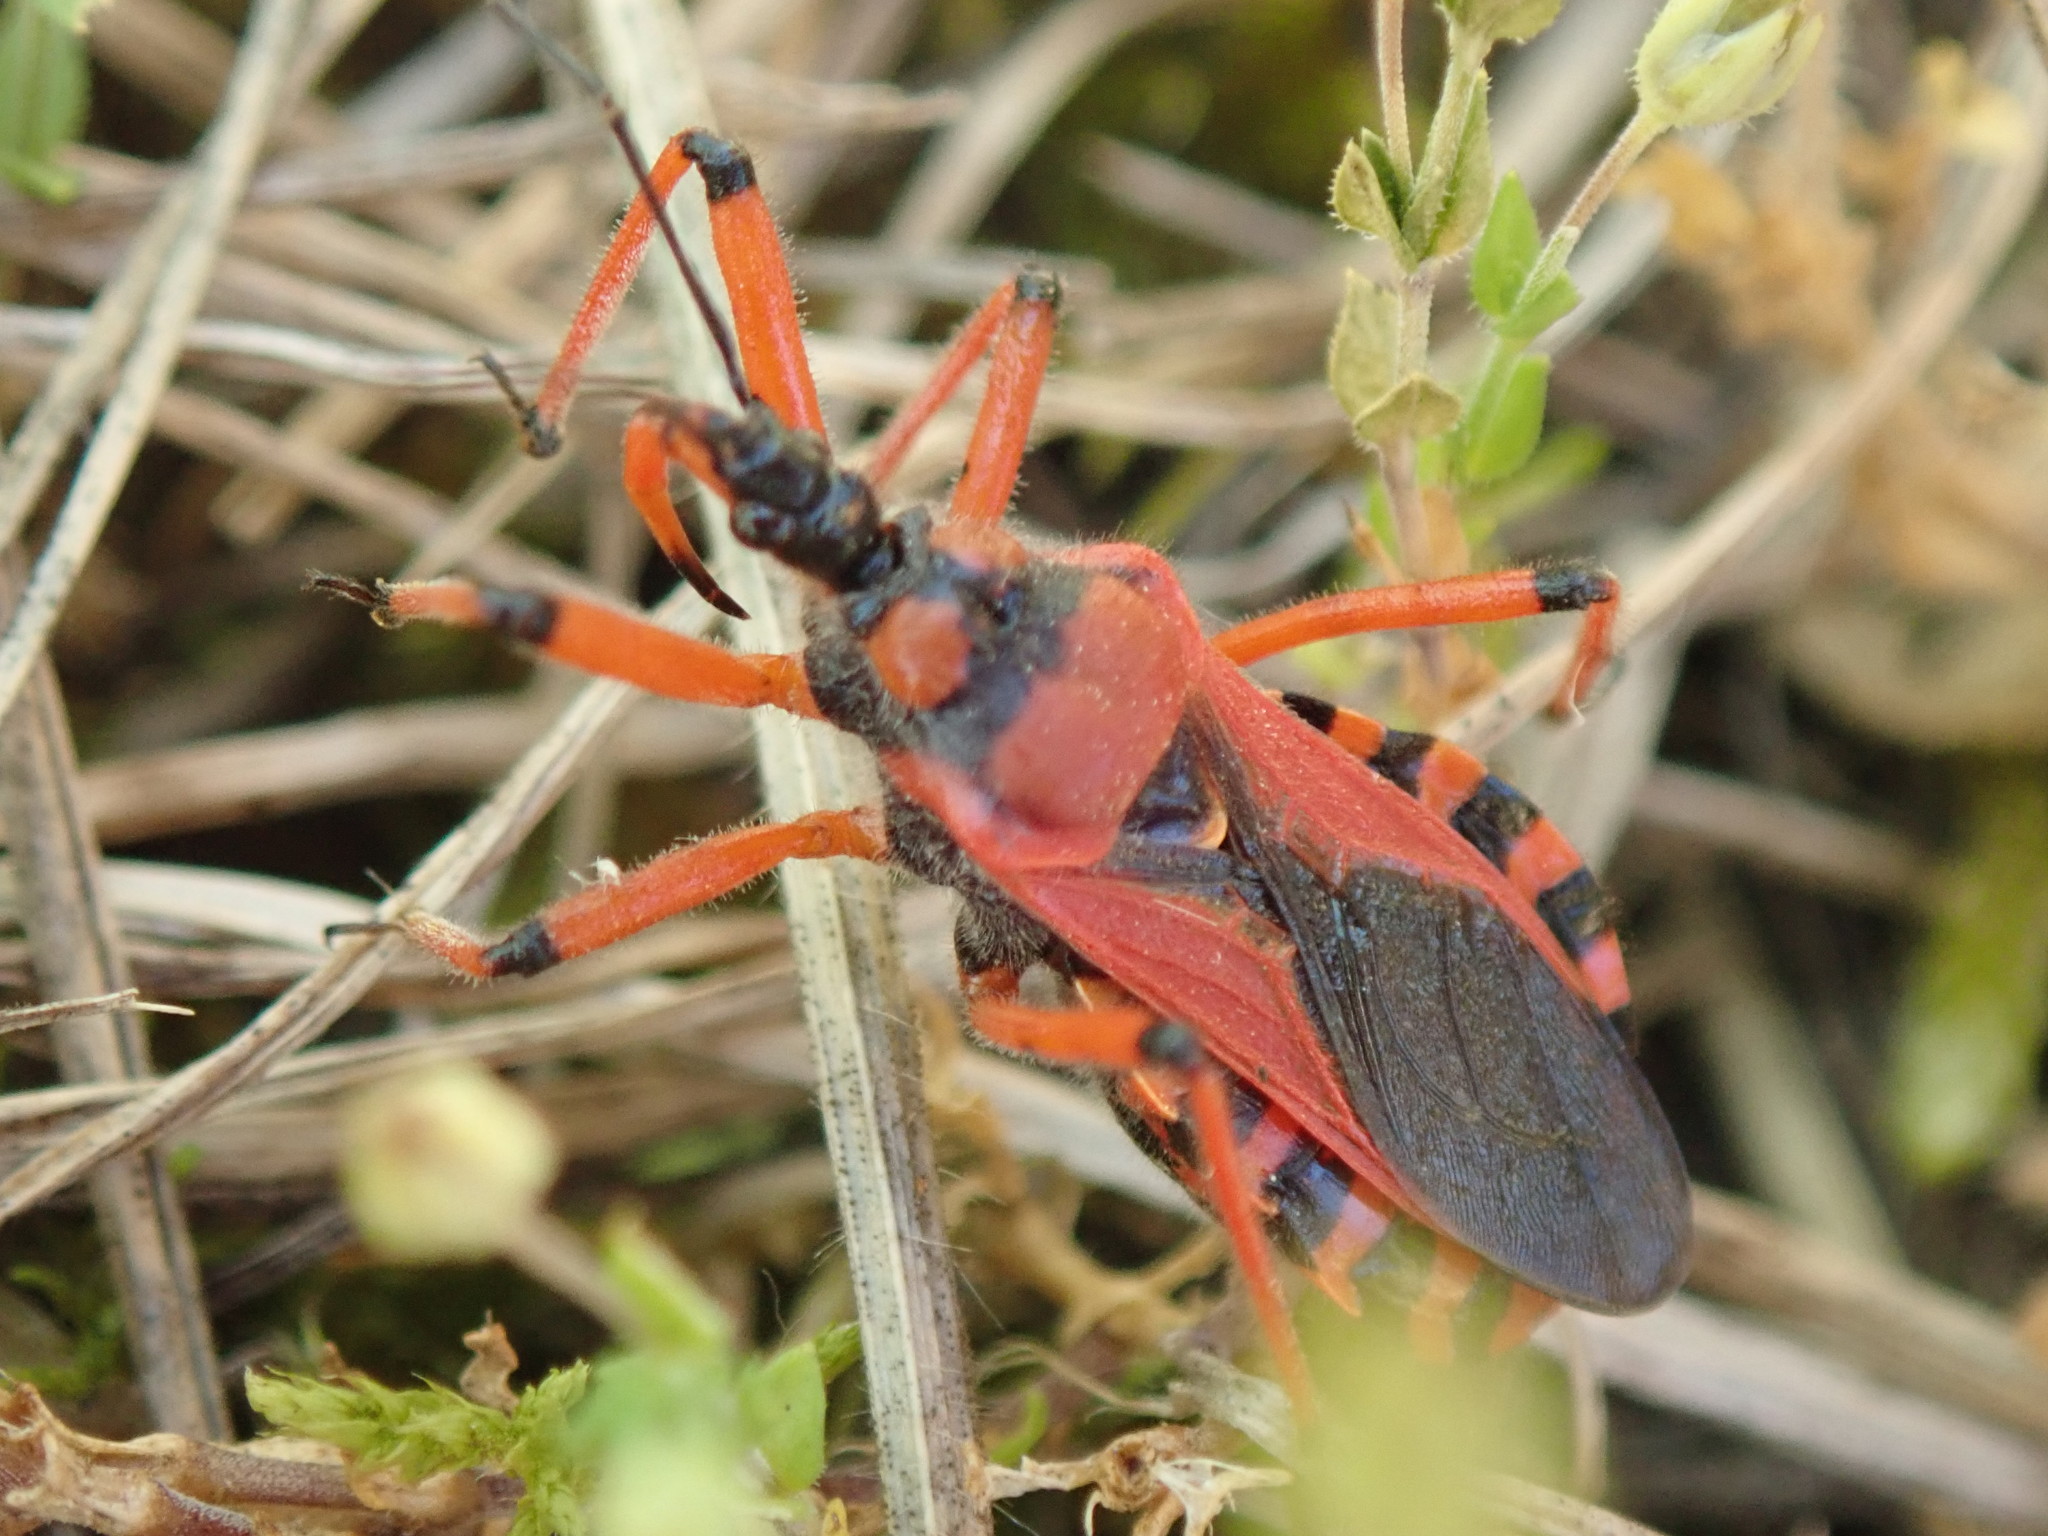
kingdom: Animalia
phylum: Arthropoda
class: Insecta
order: Hemiptera
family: Reduviidae
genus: Rhynocoris
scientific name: Rhynocoris iracundus
